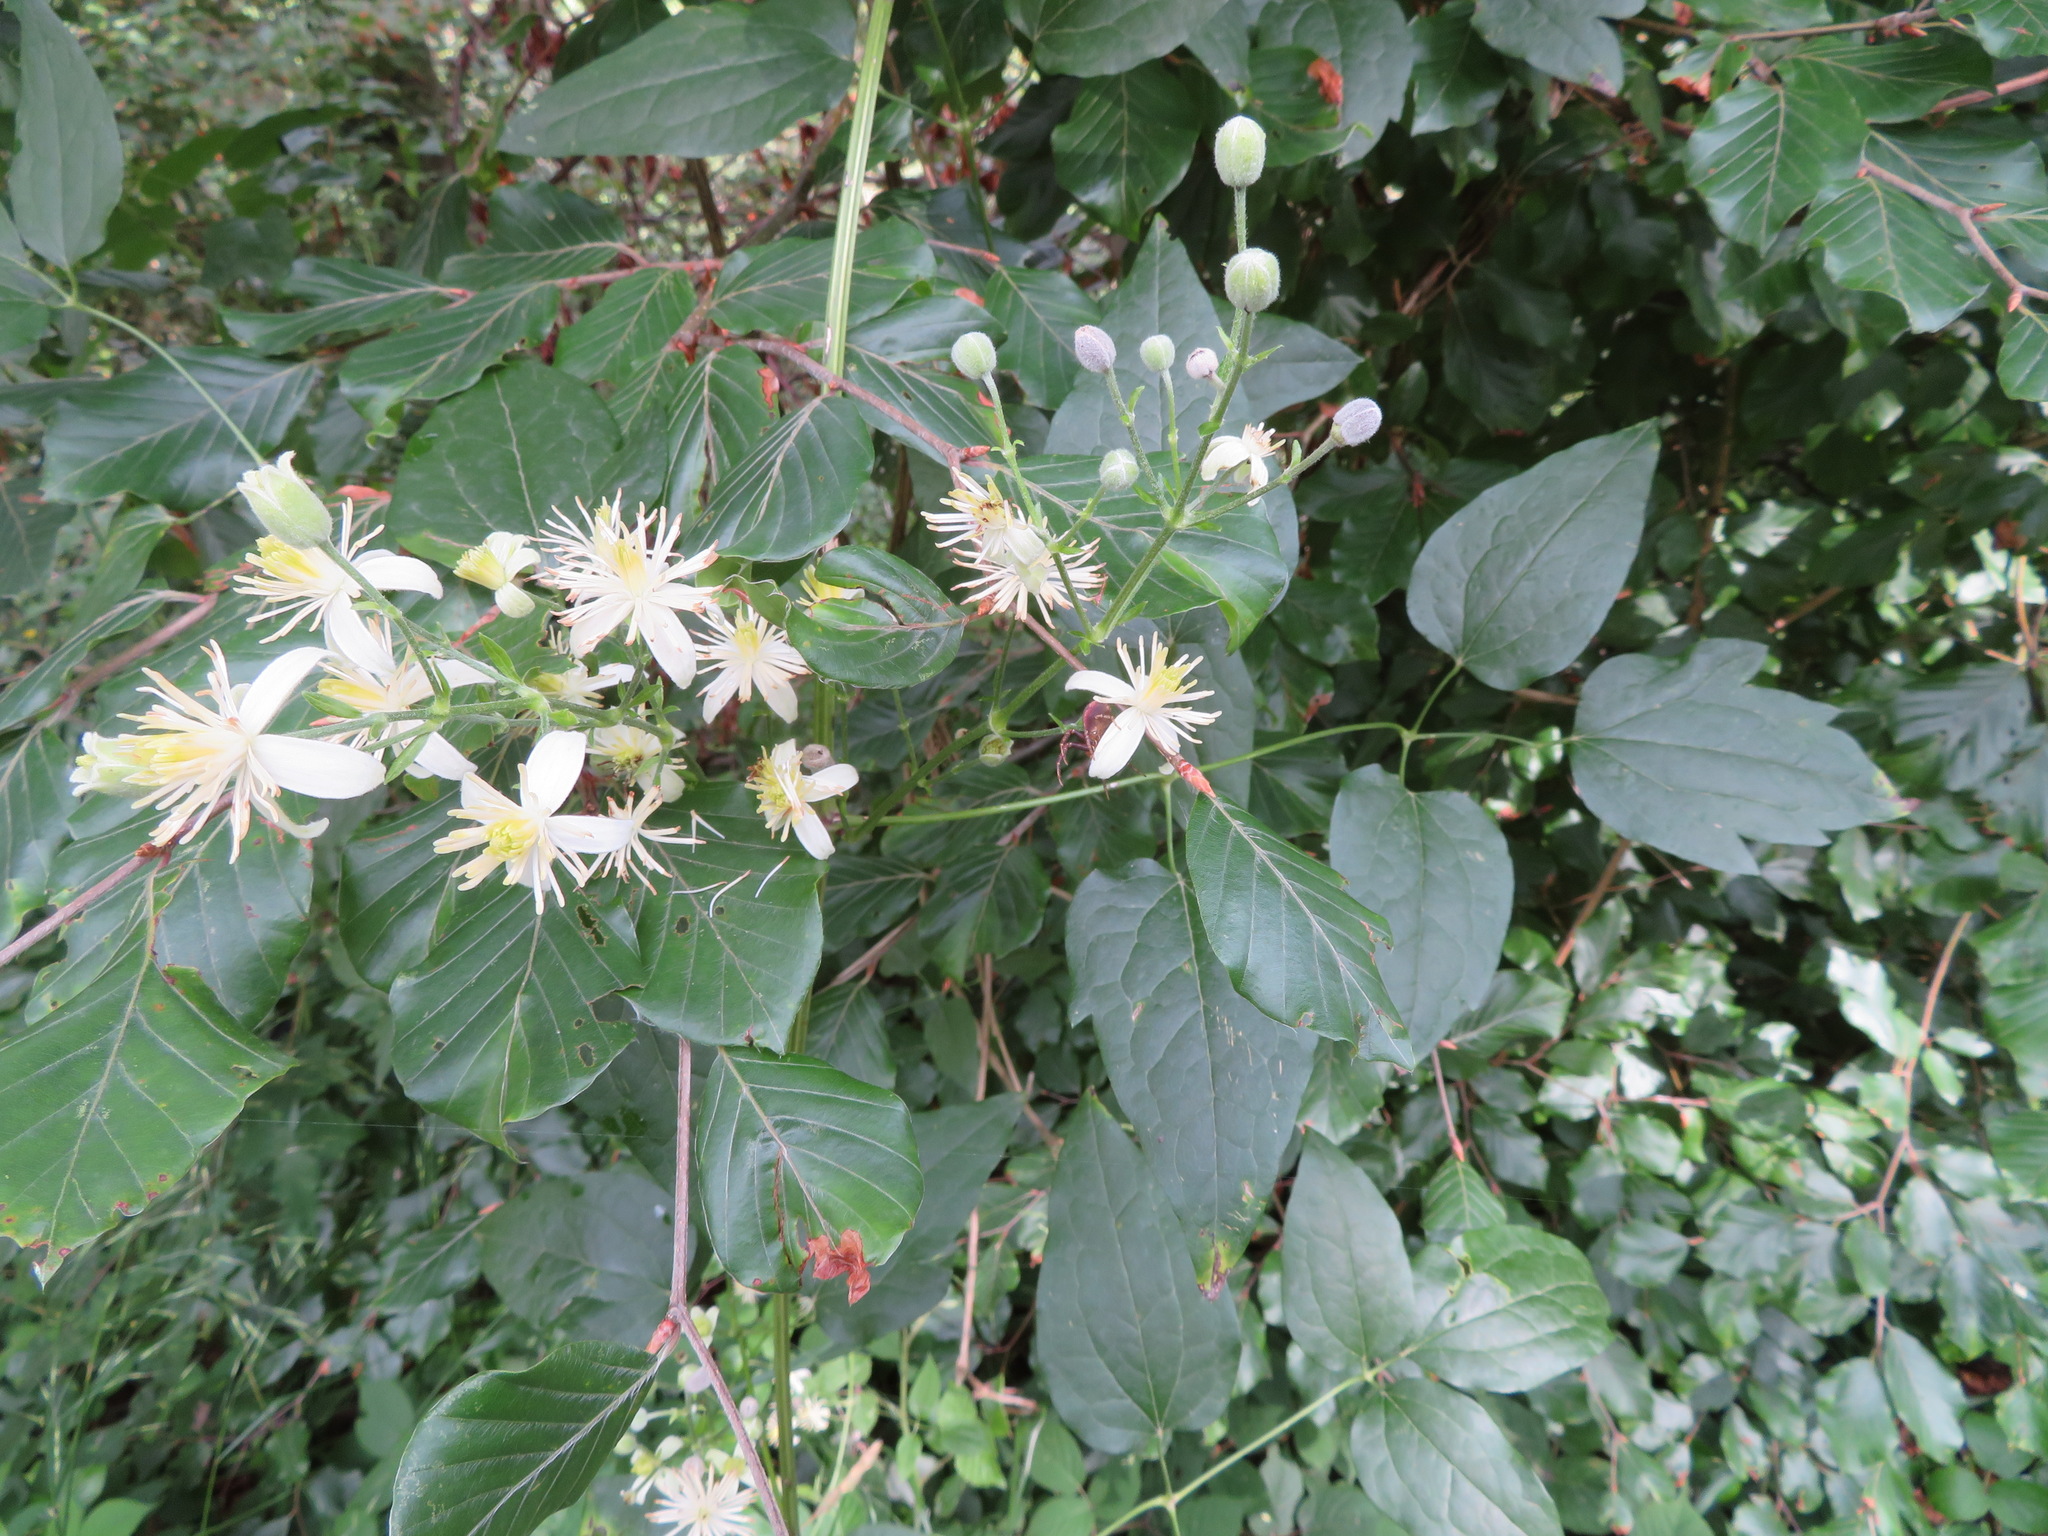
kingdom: Plantae
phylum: Tracheophyta
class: Magnoliopsida
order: Ranunculales
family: Ranunculaceae
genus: Clematis
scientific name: Clematis vitalba
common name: Evergreen clematis
